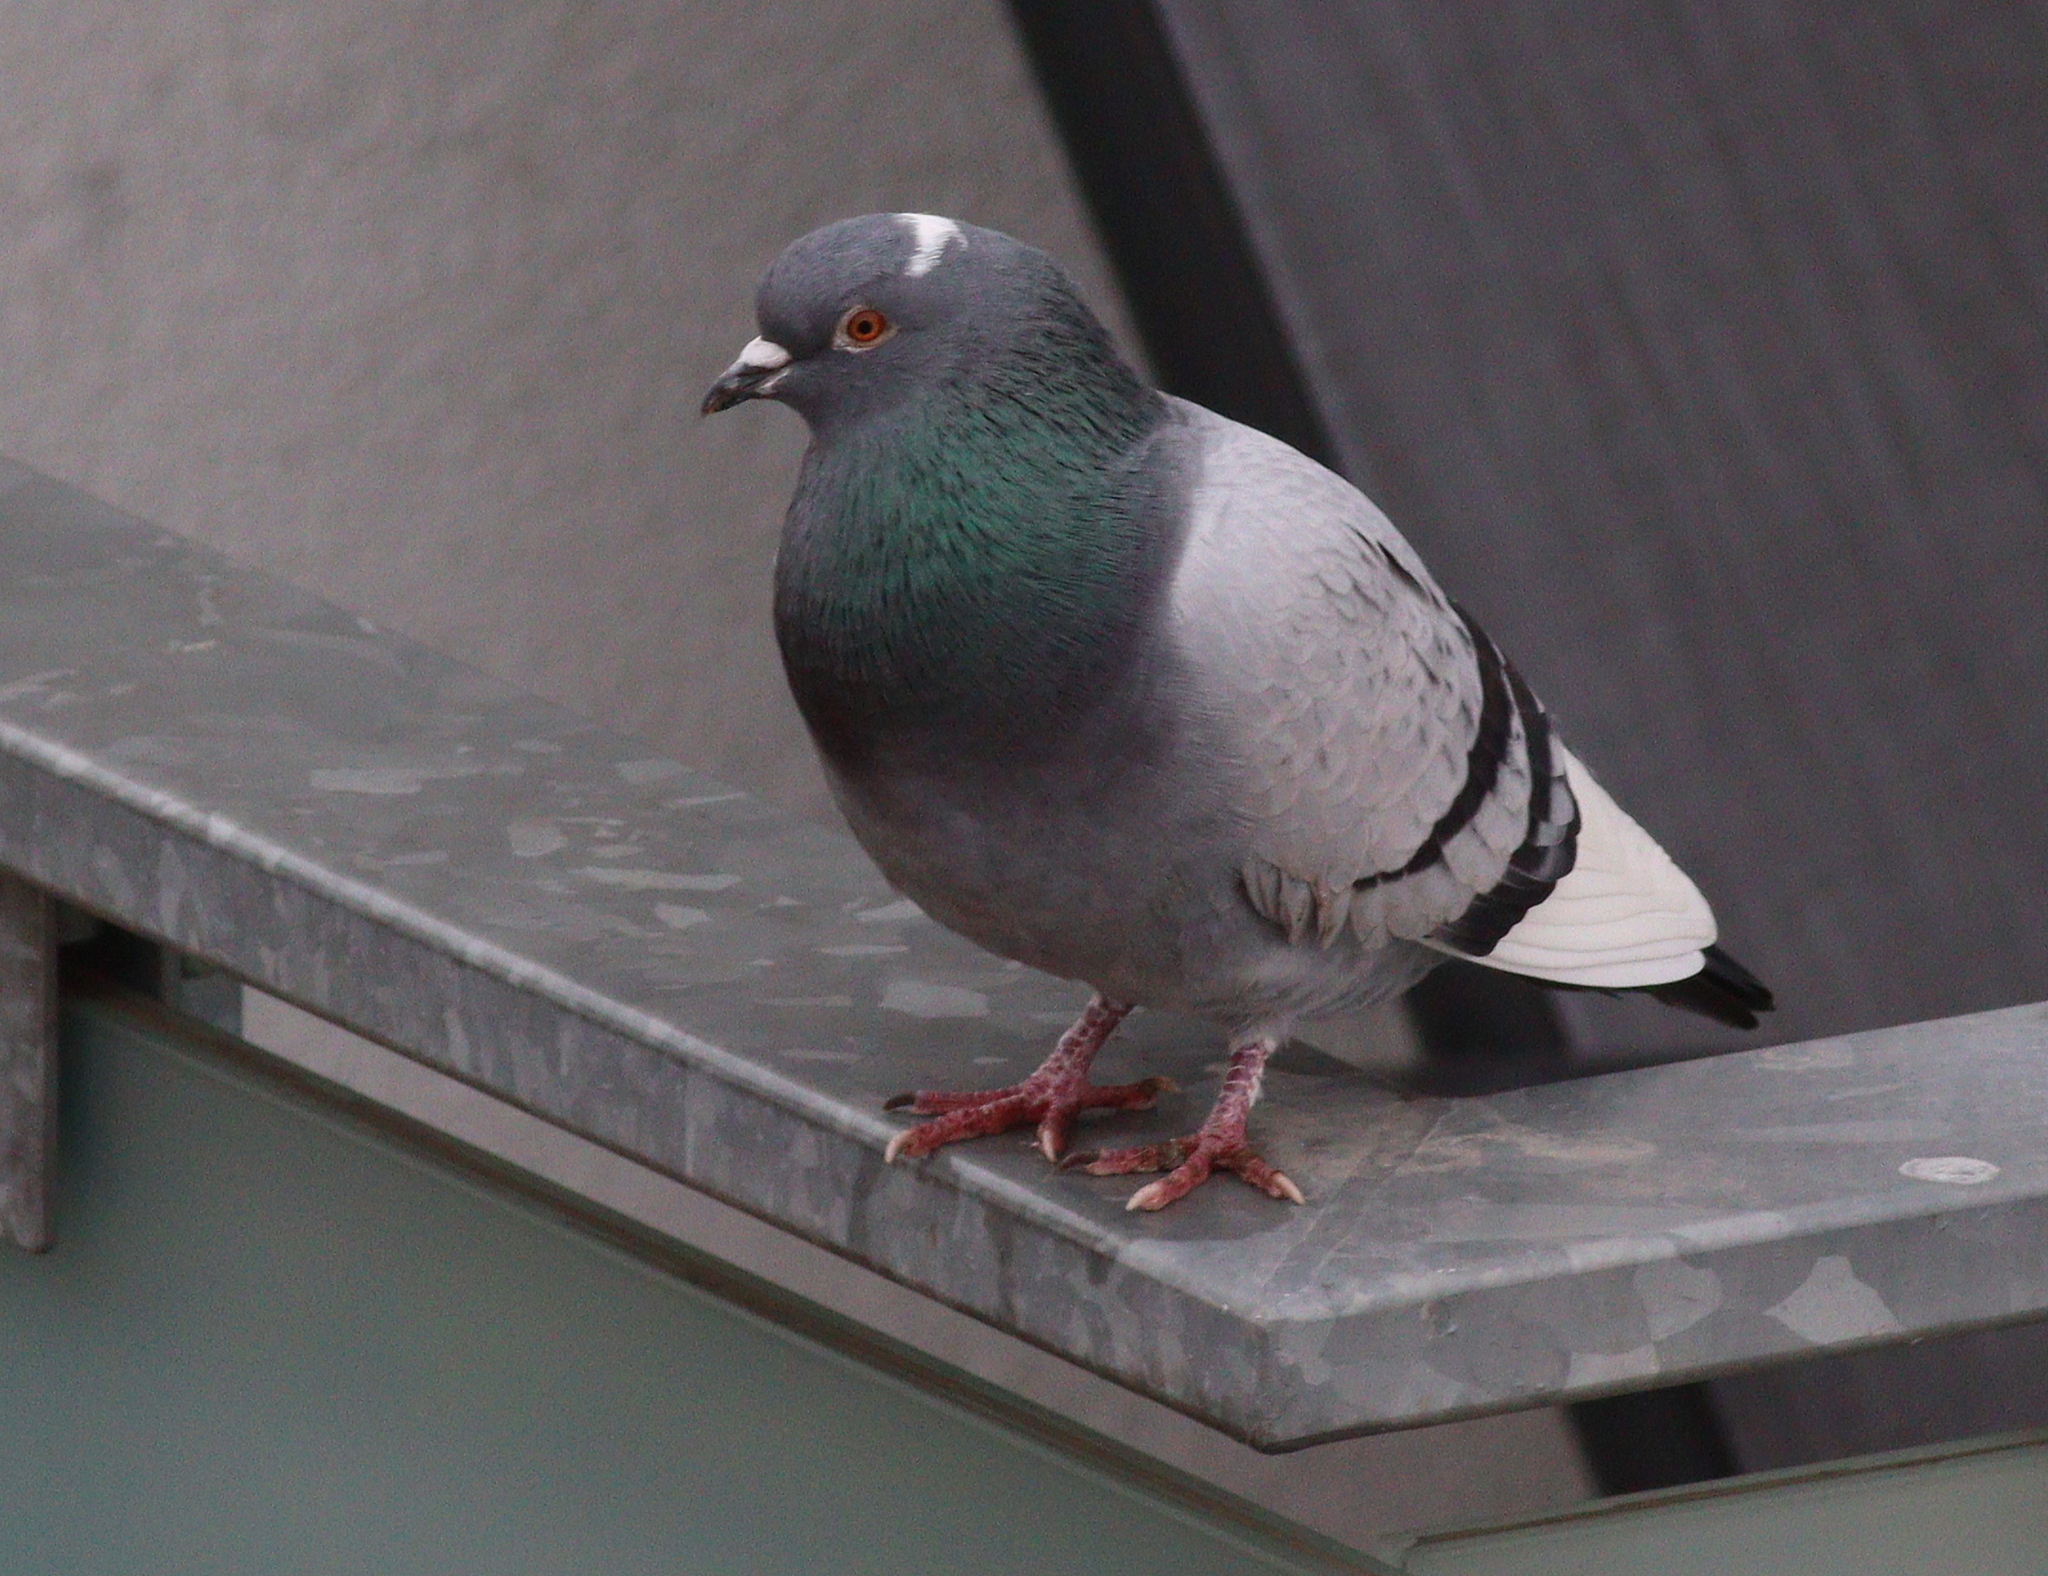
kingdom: Animalia
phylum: Chordata
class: Aves
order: Columbiformes
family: Columbidae
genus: Columba
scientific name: Columba livia
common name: Rock pigeon
